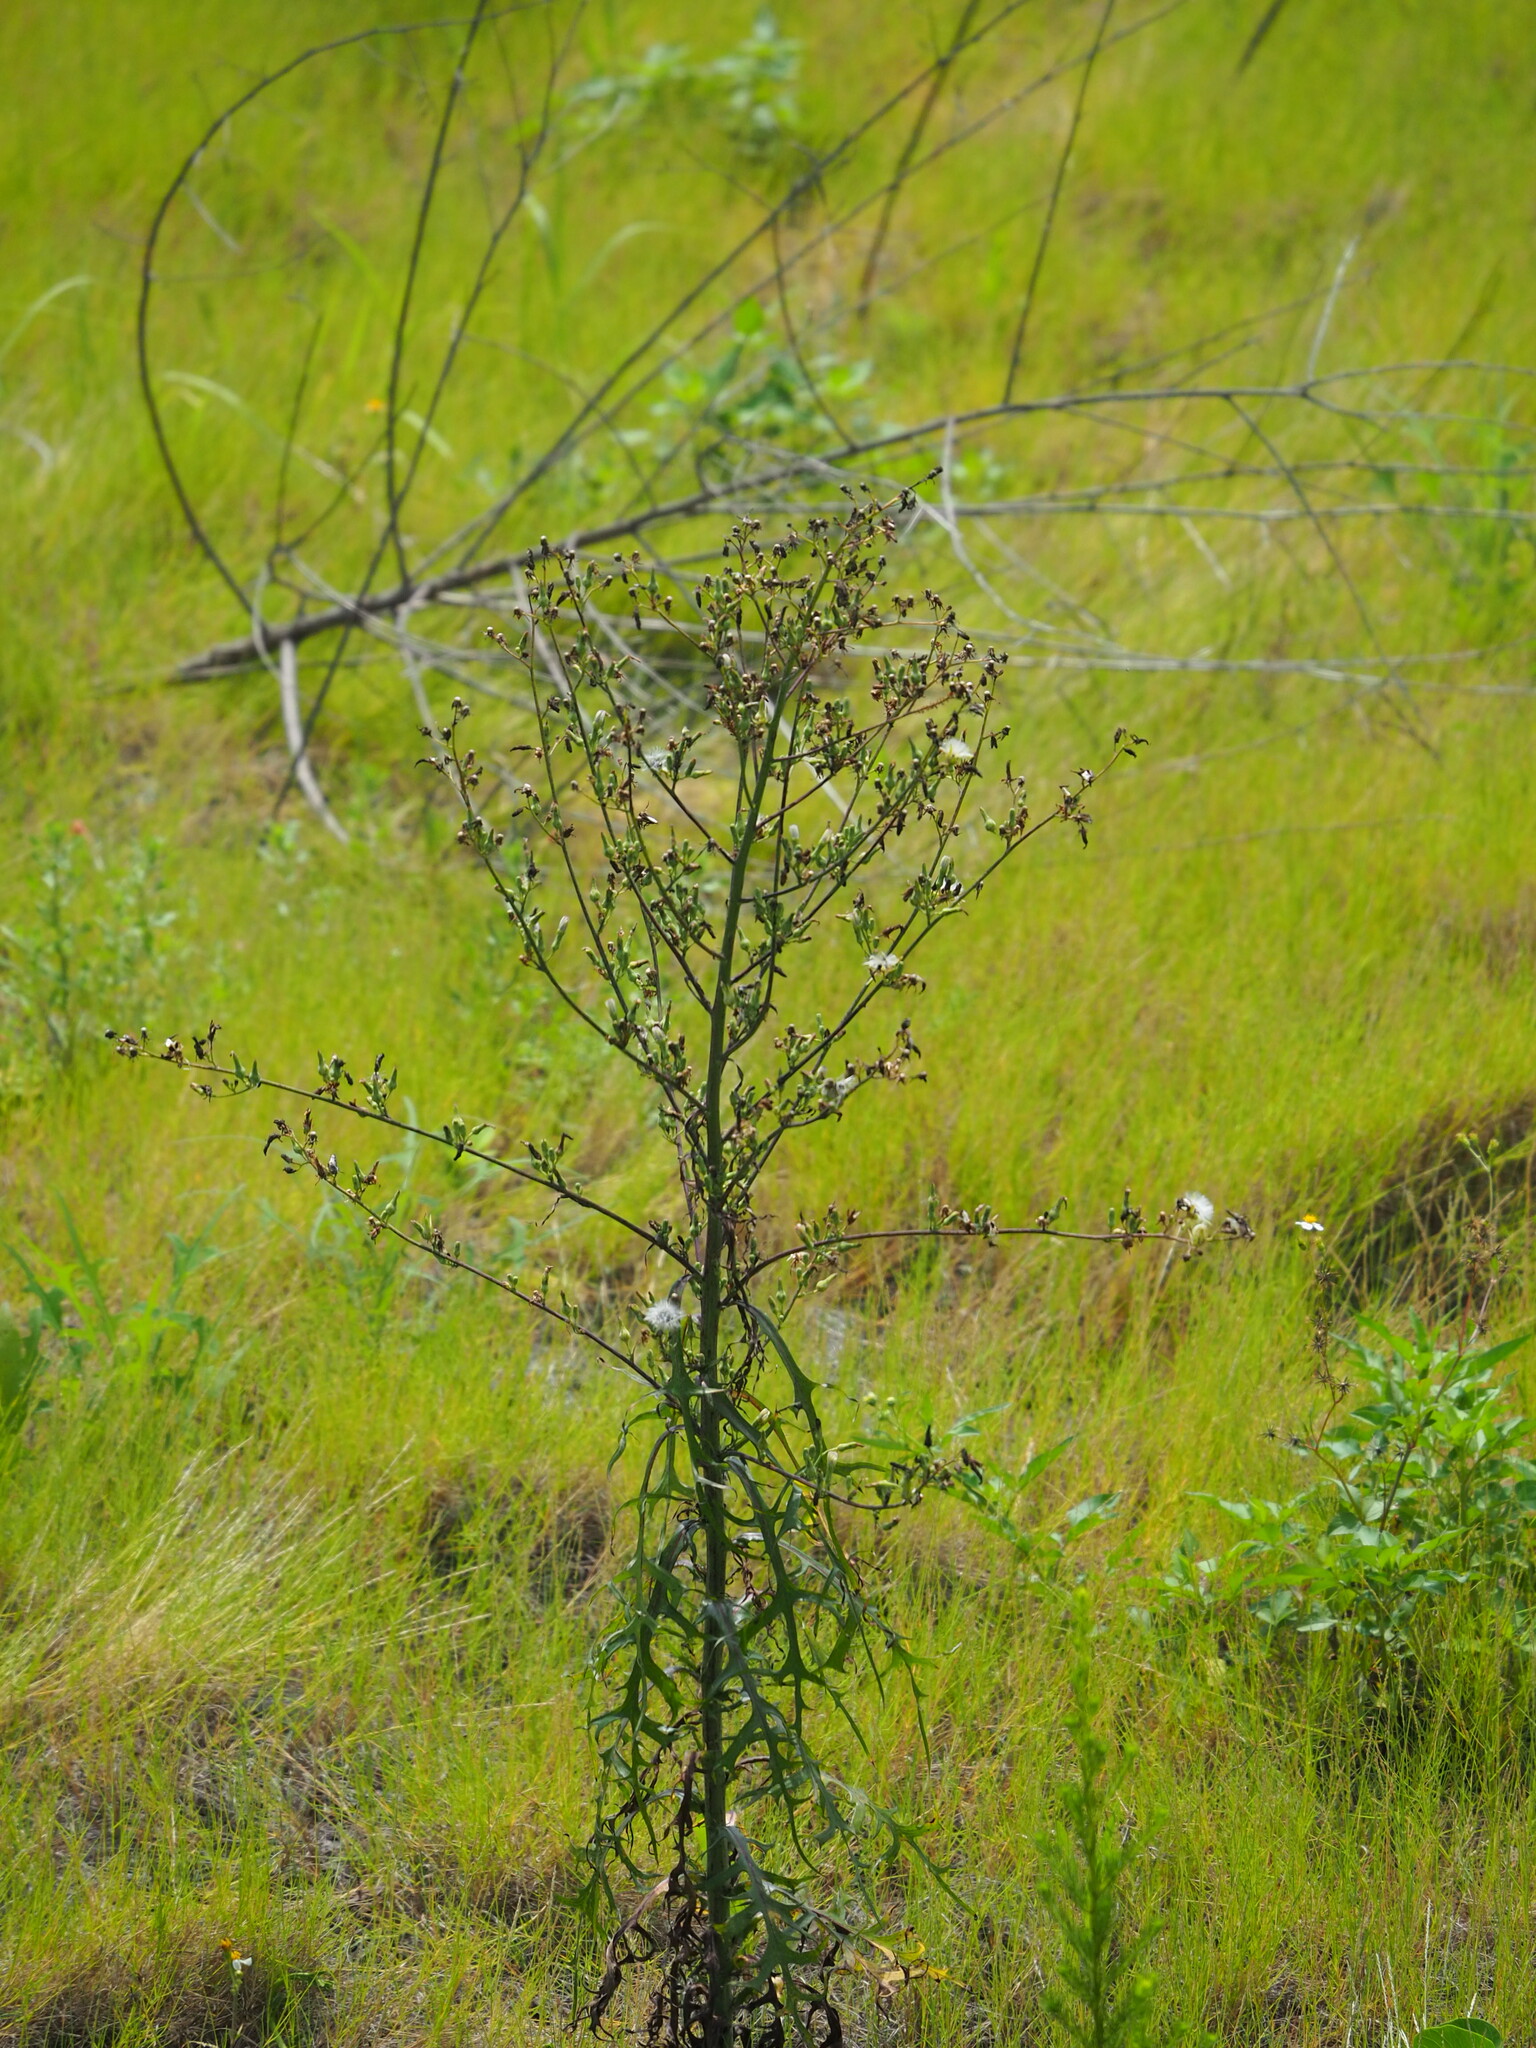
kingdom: Plantae
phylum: Tracheophyta
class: Magnoliopsida
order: Asterales
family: Asteraceae
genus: Lactuca
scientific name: Lactuca indica
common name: Wild lettuce
